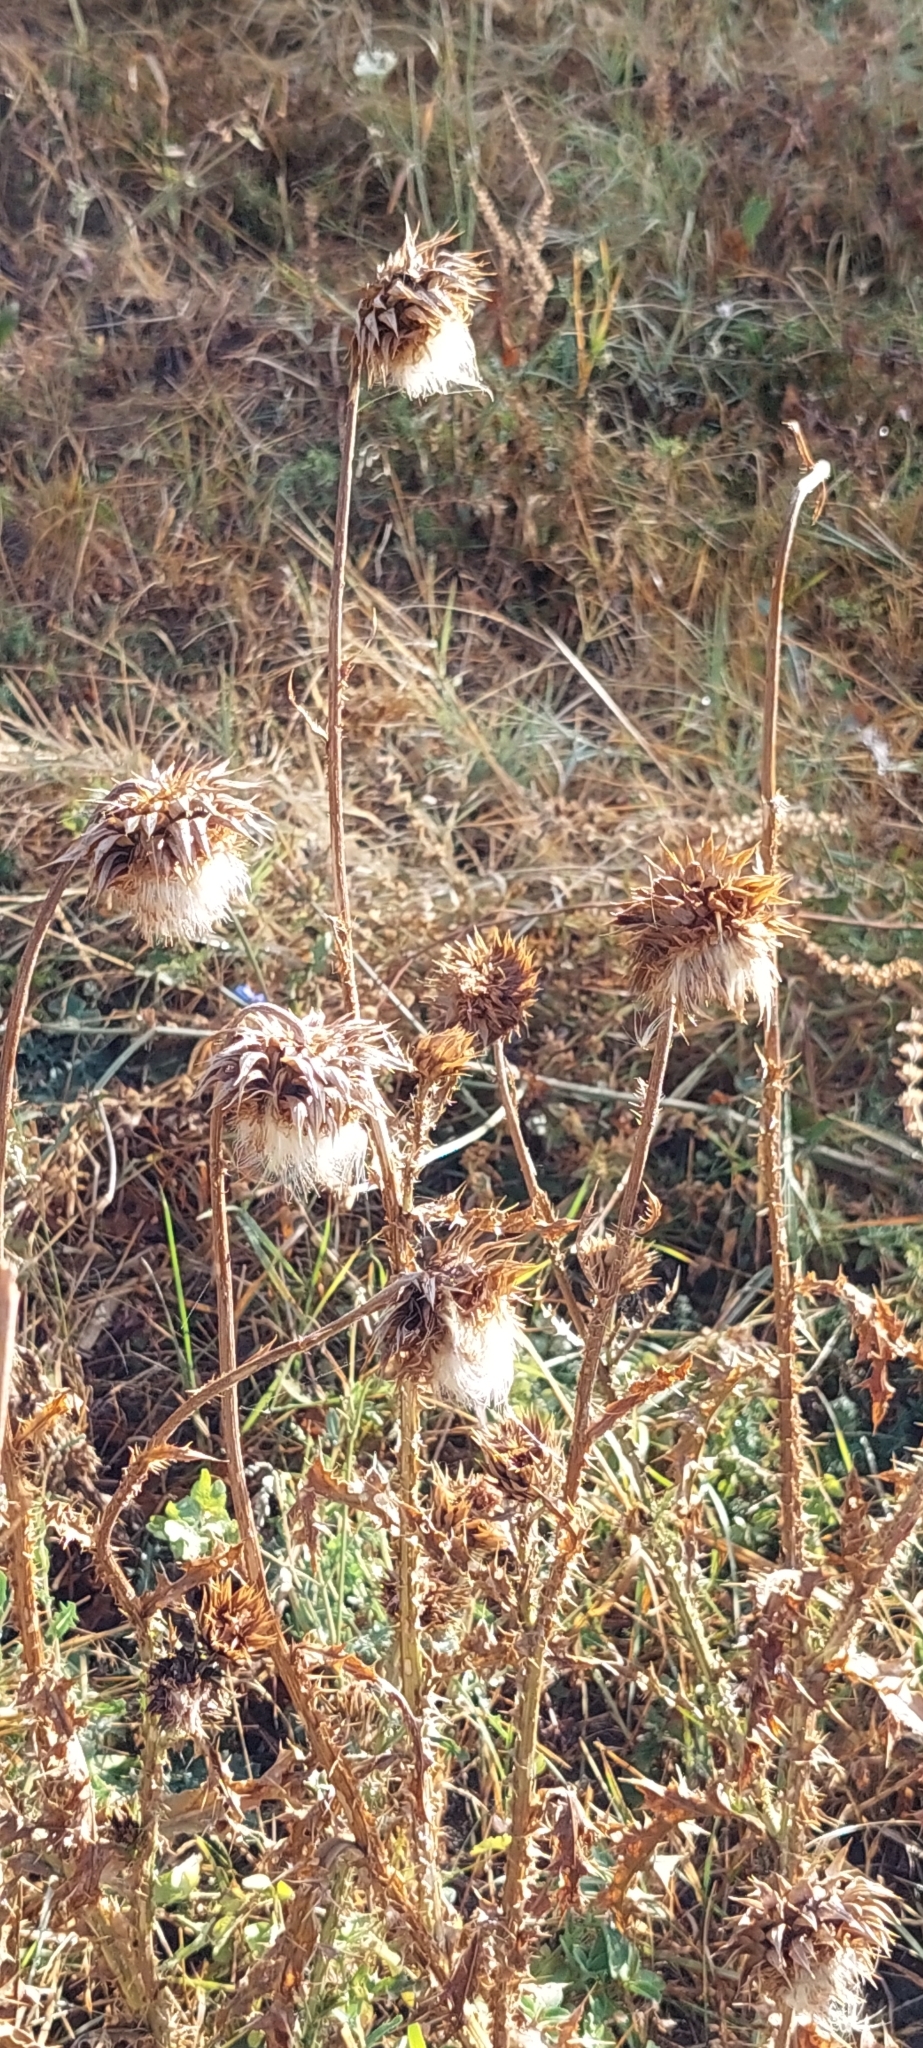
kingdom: Plantae
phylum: Tracheophyta
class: Magnoliopsida
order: Asterales
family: Asteraceae
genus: Carduus
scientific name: Carduus nutans
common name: Musk thistle
